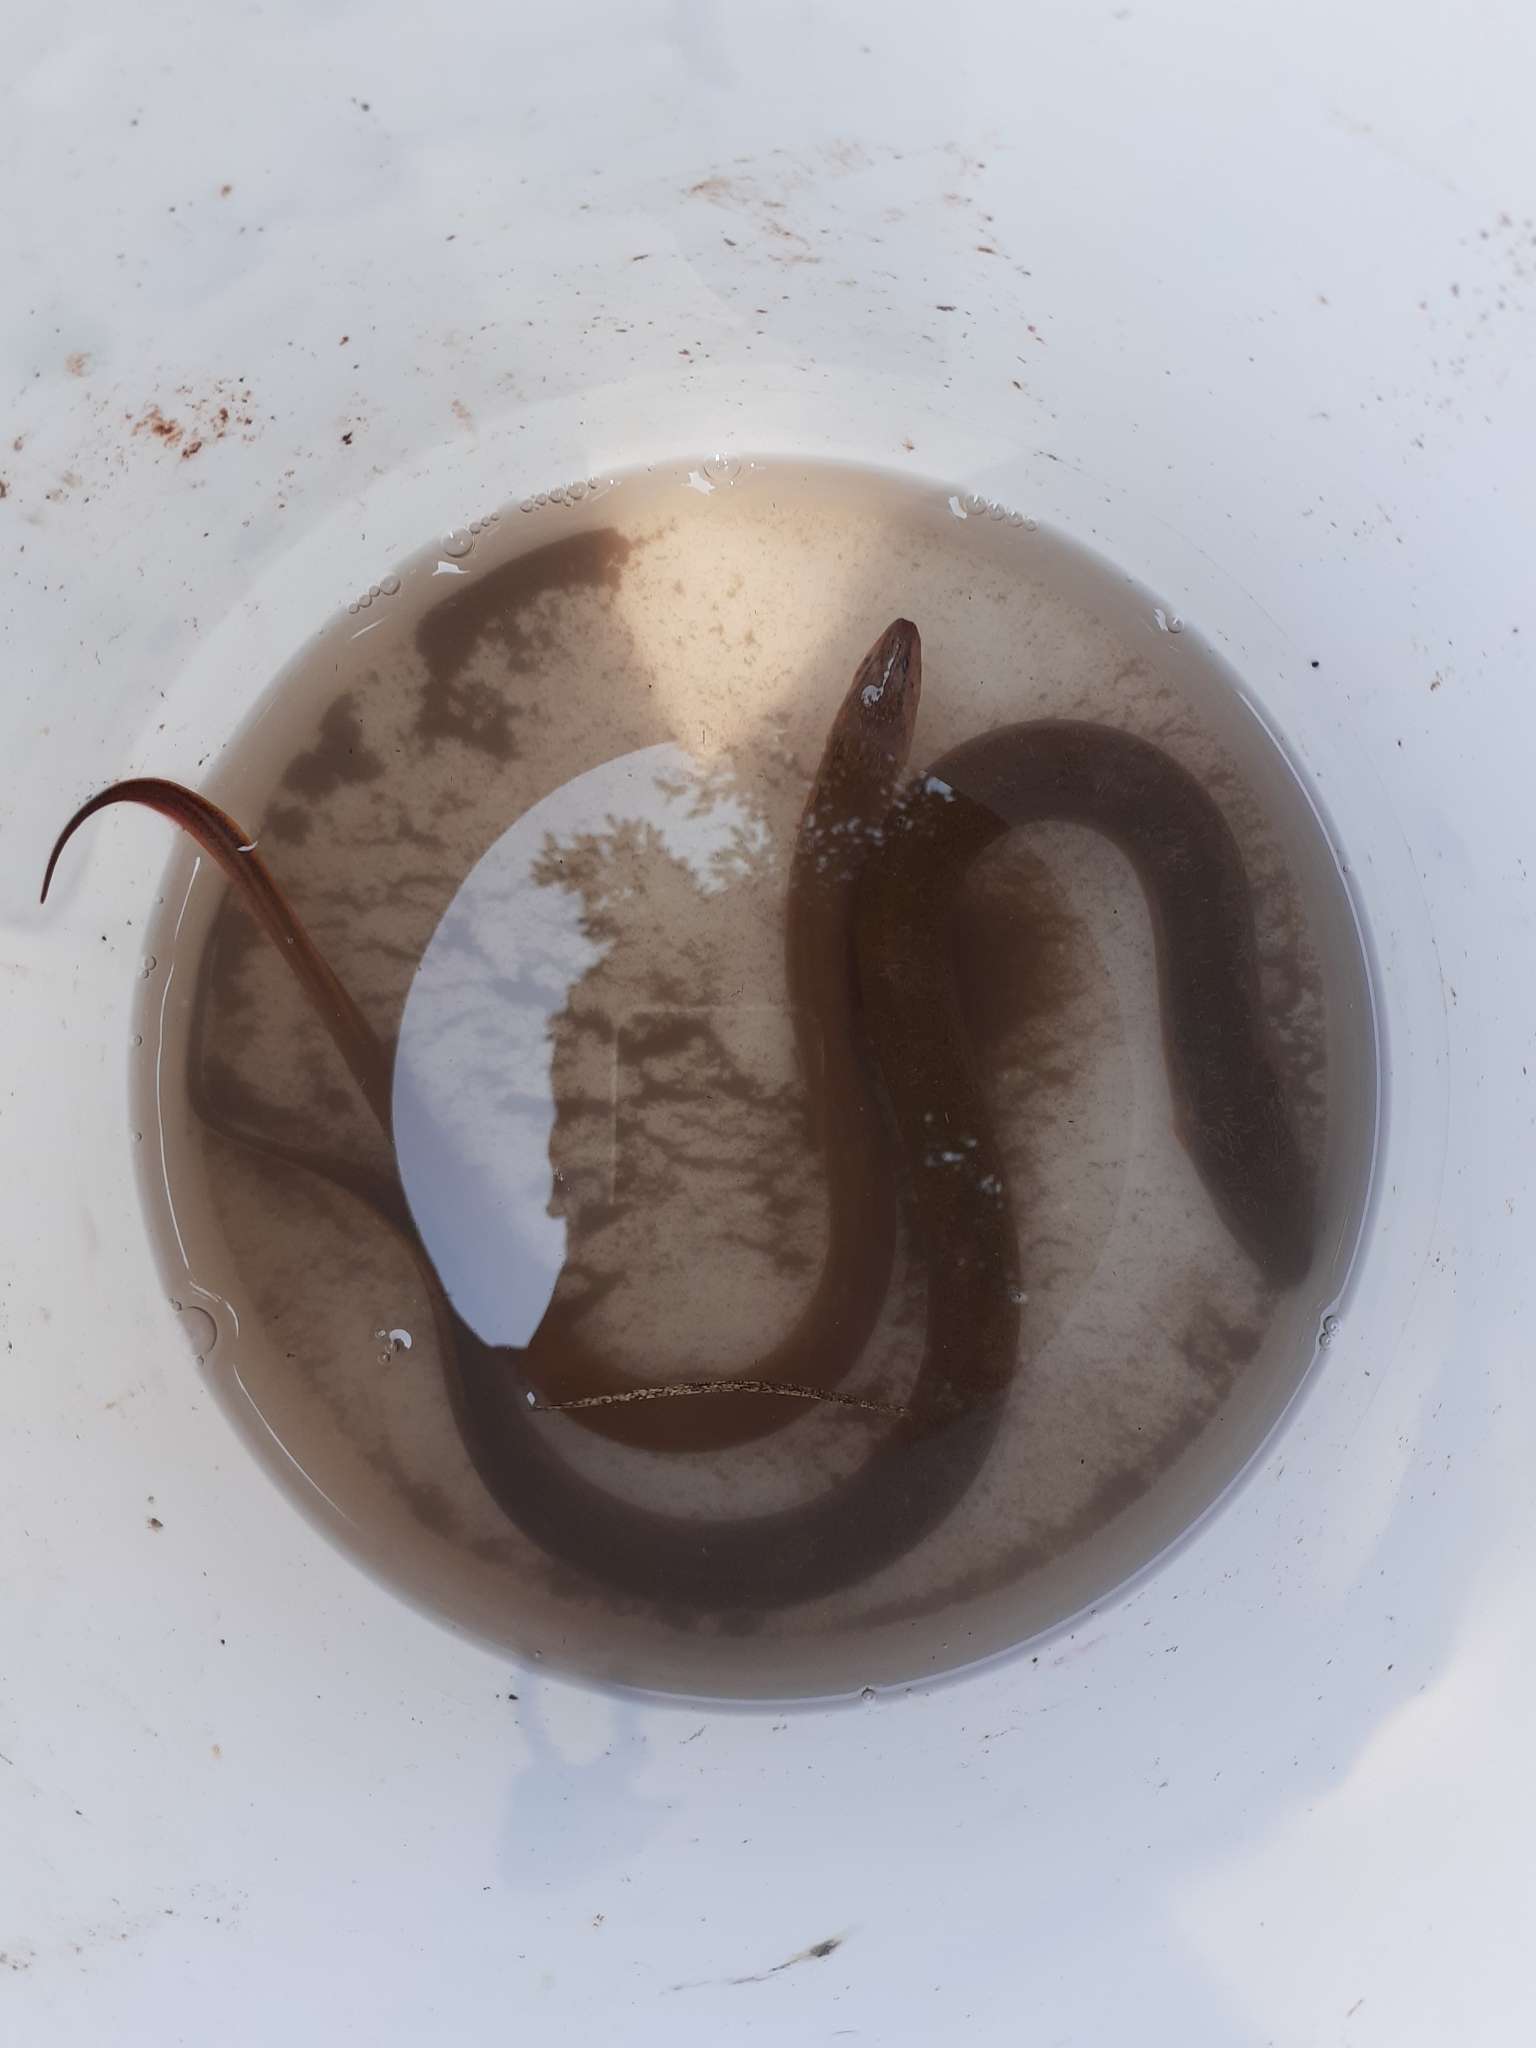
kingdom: Animalia
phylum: Chordata
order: Synbranchiformes
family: Synbranchidae
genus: Monopterus
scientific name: Monopterus albus
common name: Asian swamp eel
